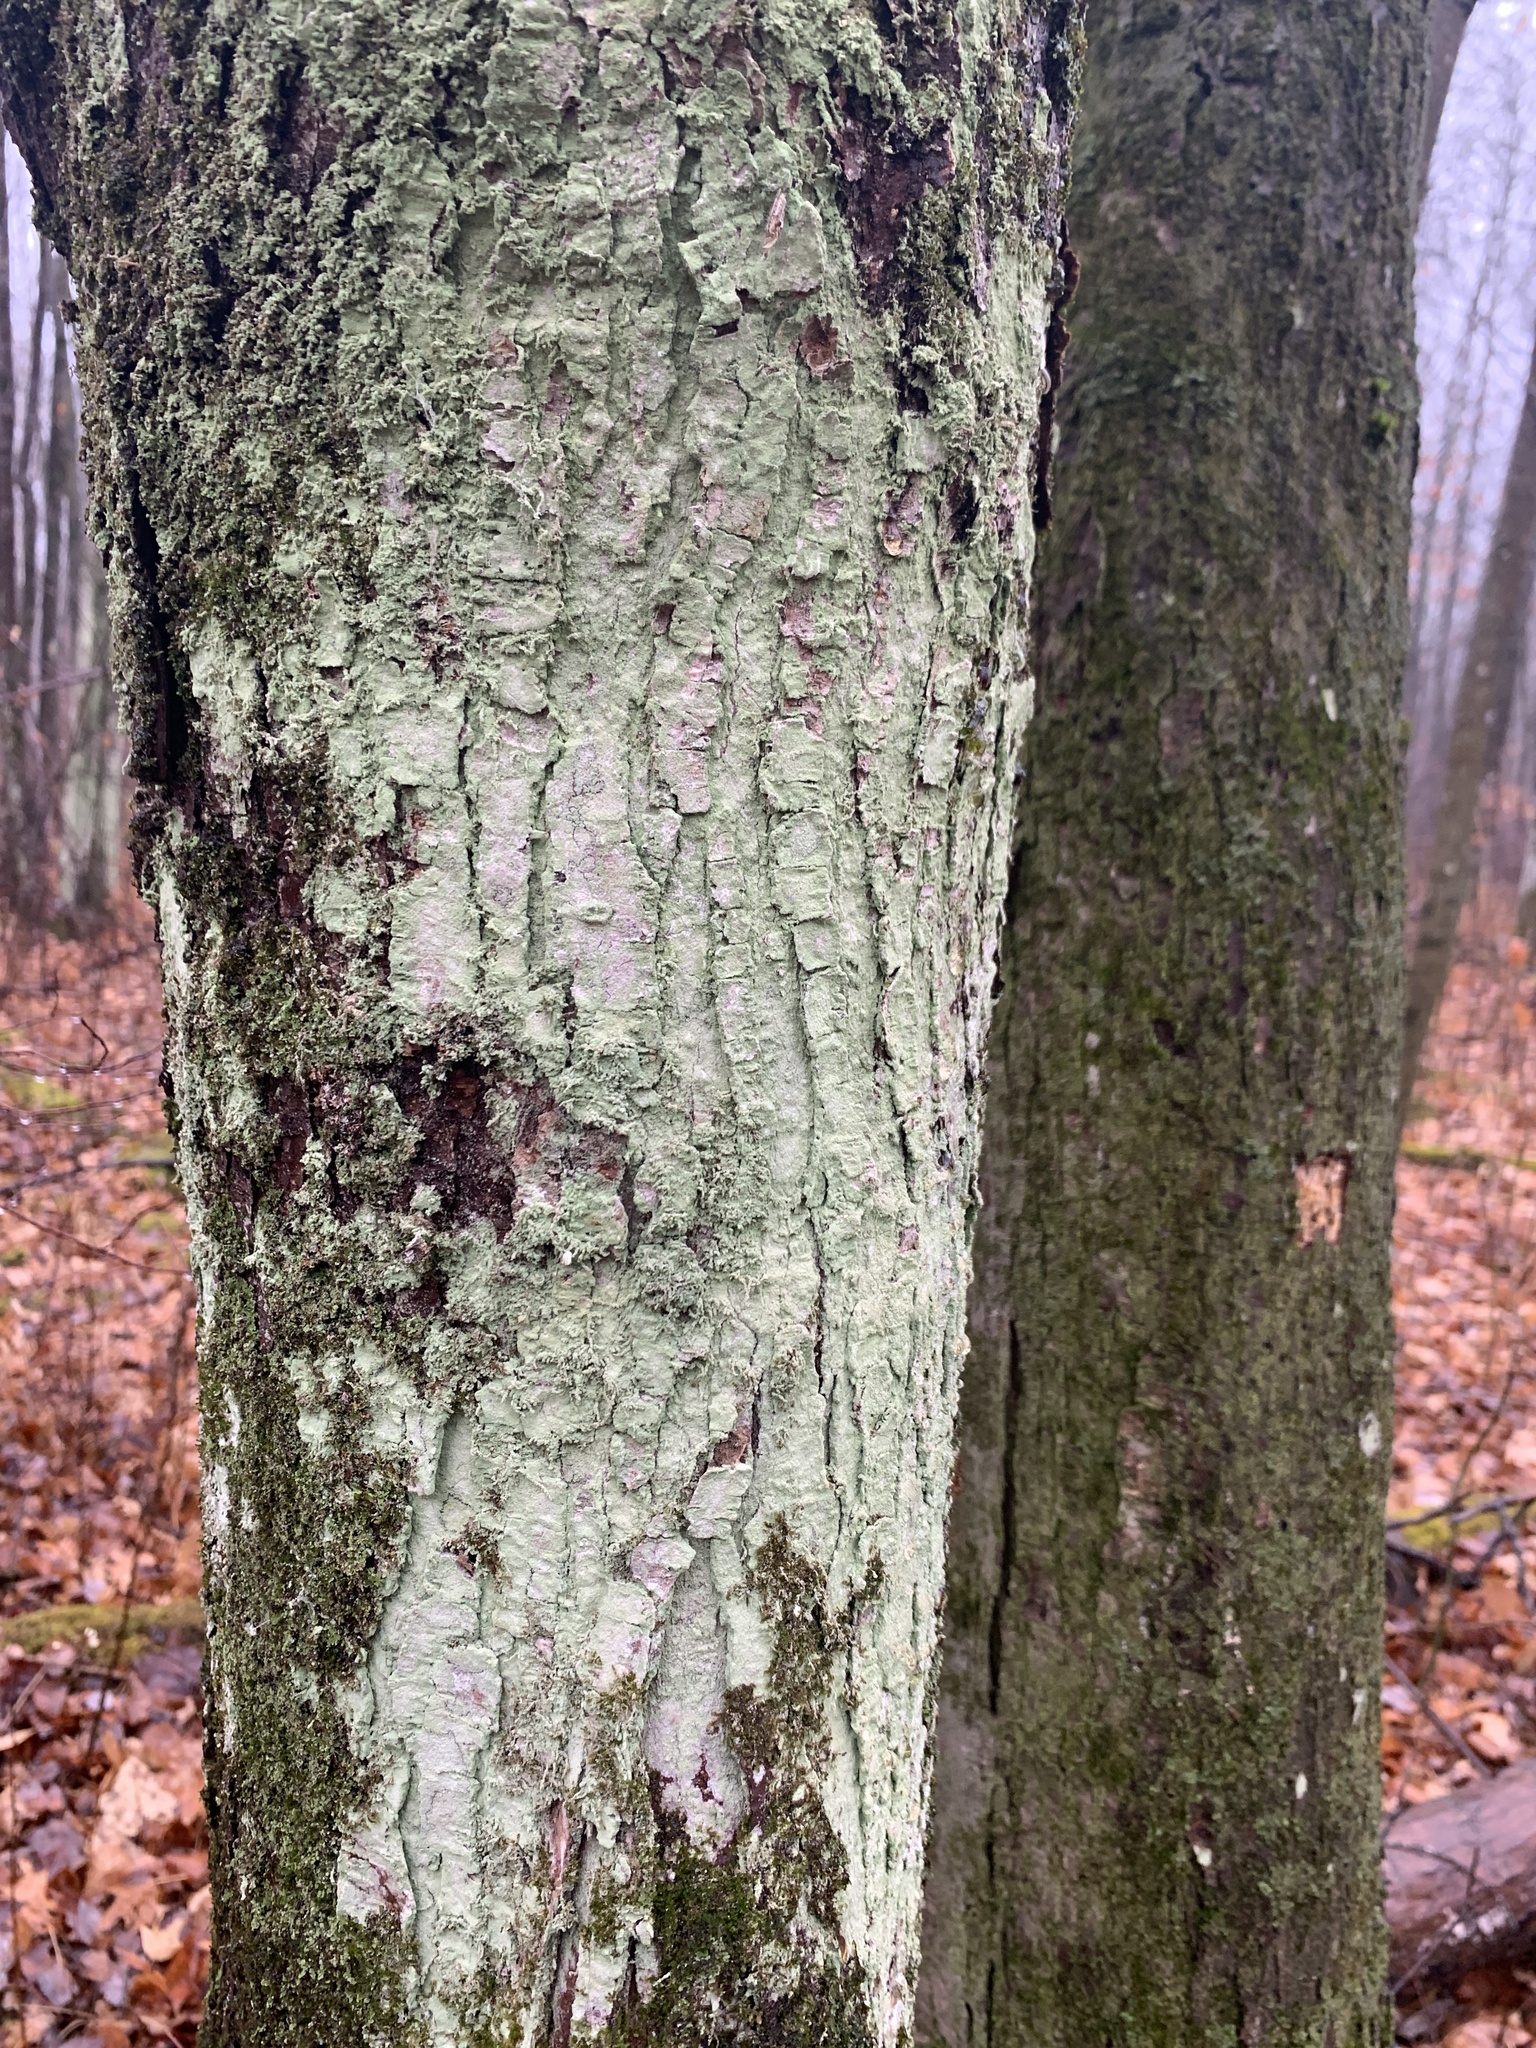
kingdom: Fungi
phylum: Ascomycota
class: Lecanoromycetes
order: Lecanorales
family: Stereocaulaceae
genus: Lepraria
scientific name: Lepraria lobificans
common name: Fluffy dust lichen
